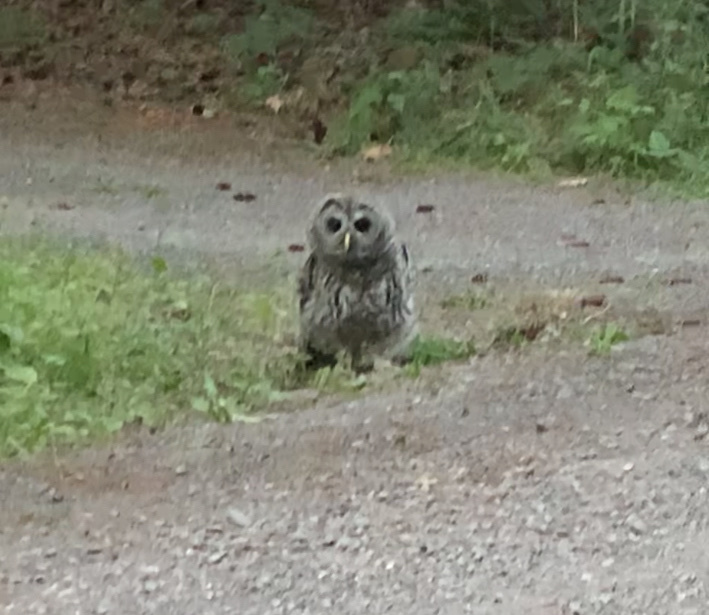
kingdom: Animalia
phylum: Chordata
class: Aves
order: Strigiformes
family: Strigidae
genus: Strix
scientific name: Strix varia
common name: Barred owl
